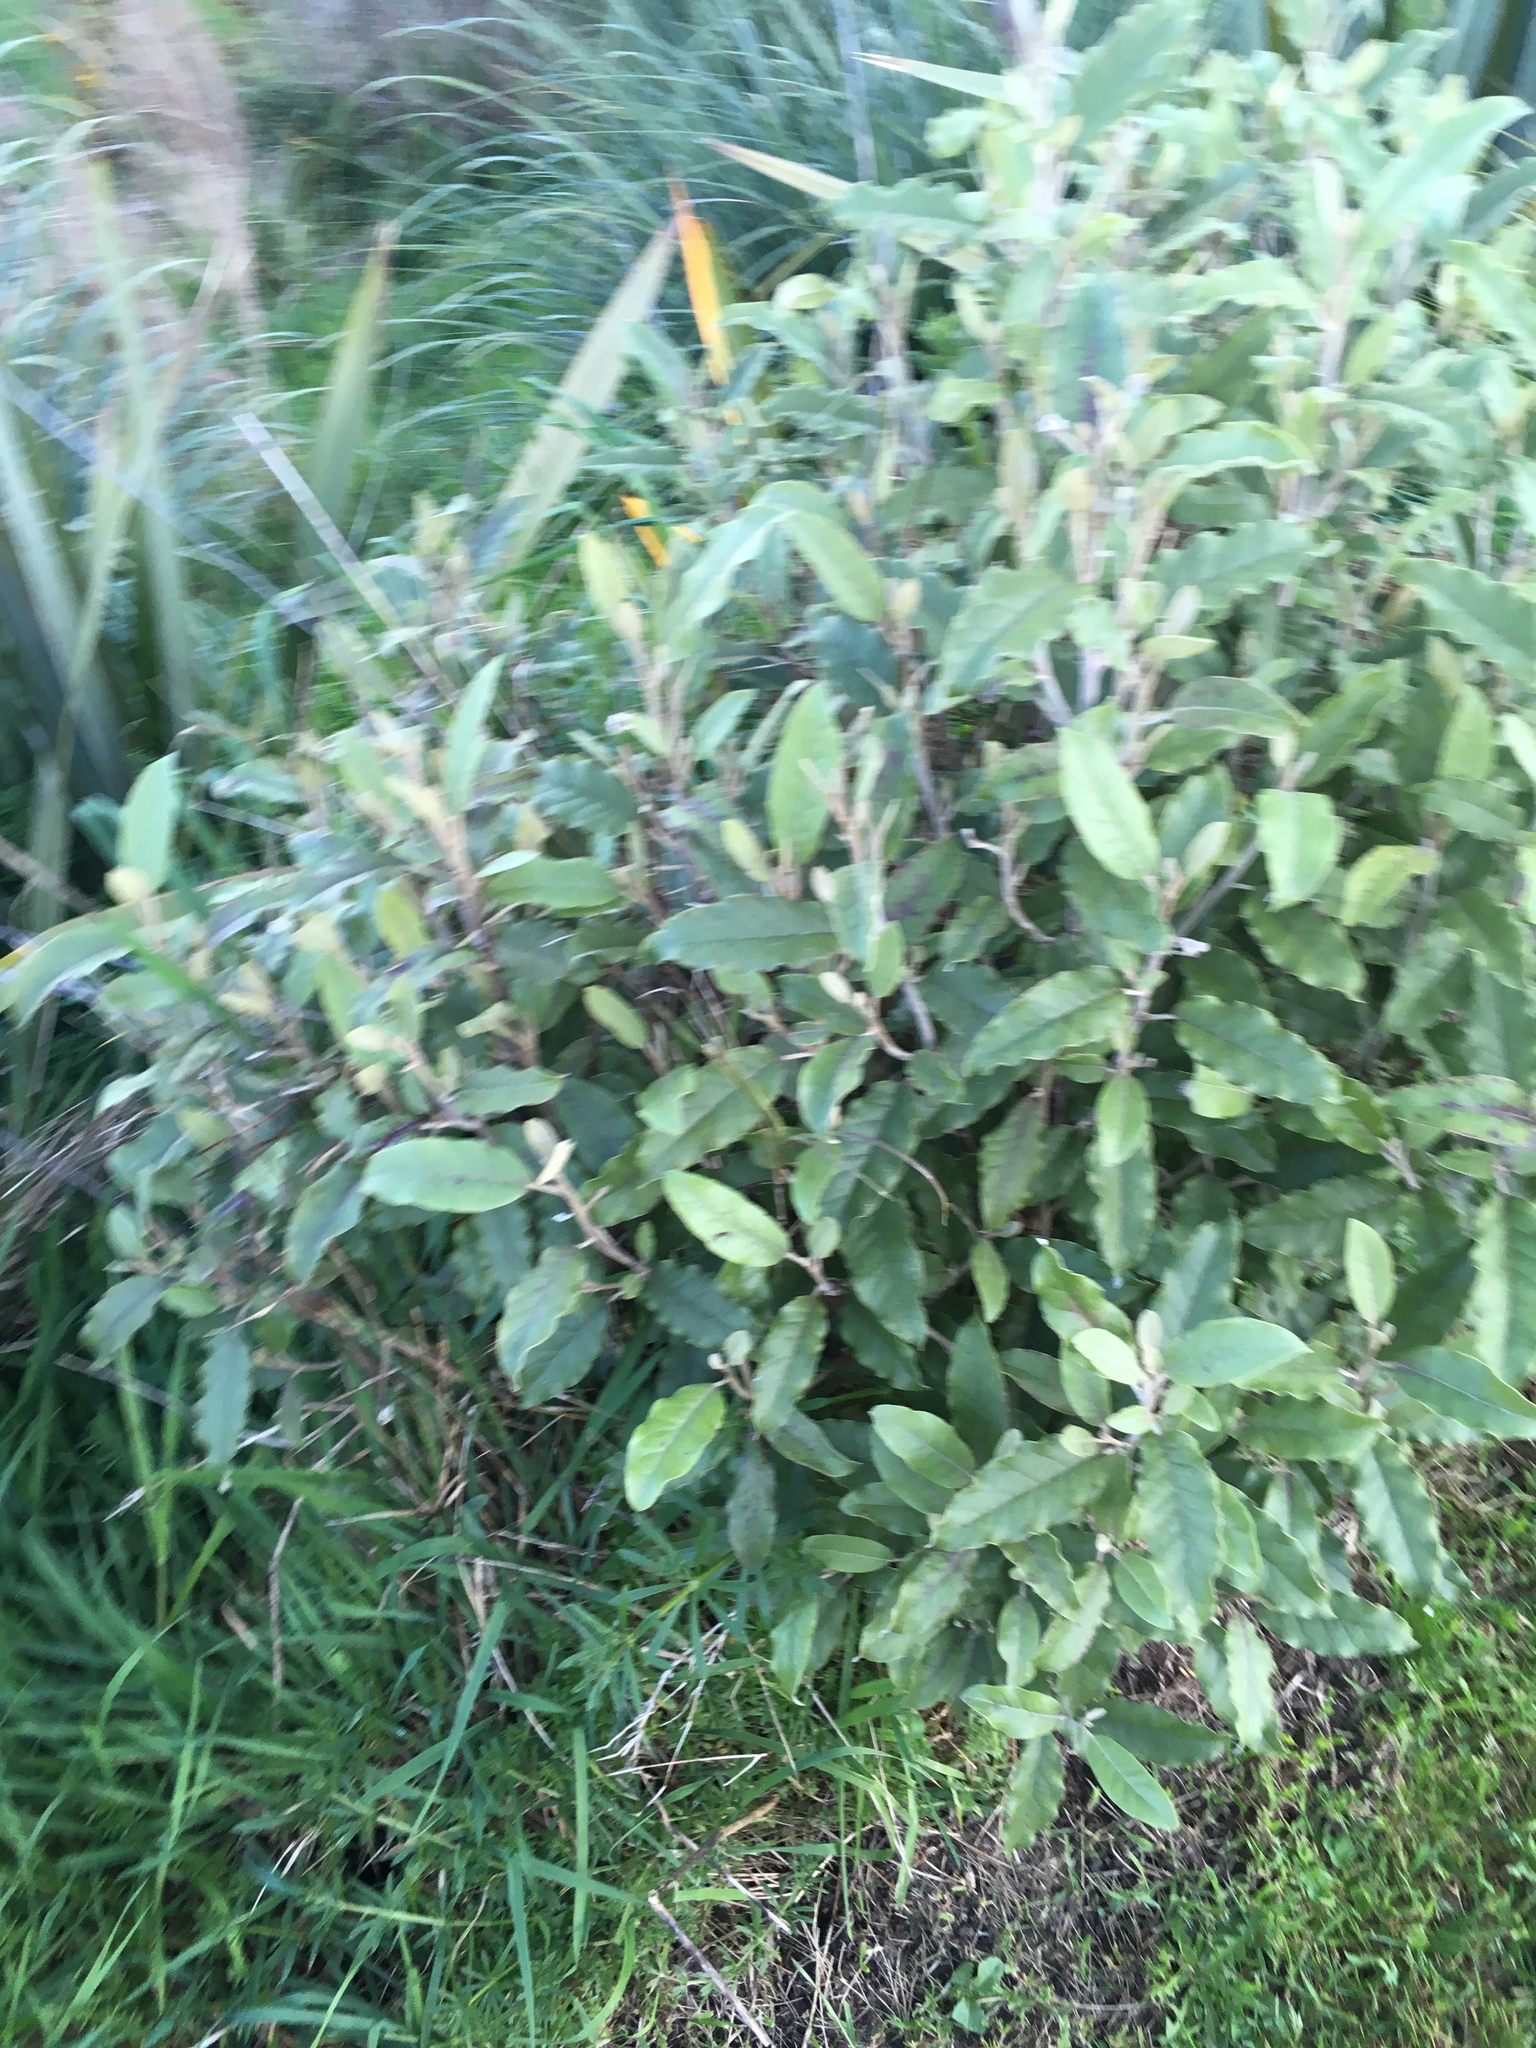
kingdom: Plantae
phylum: Tracheophyta
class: Magnoliopsida
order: Asterales
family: Asteraceae
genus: Olearia
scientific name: Olearia angulata
